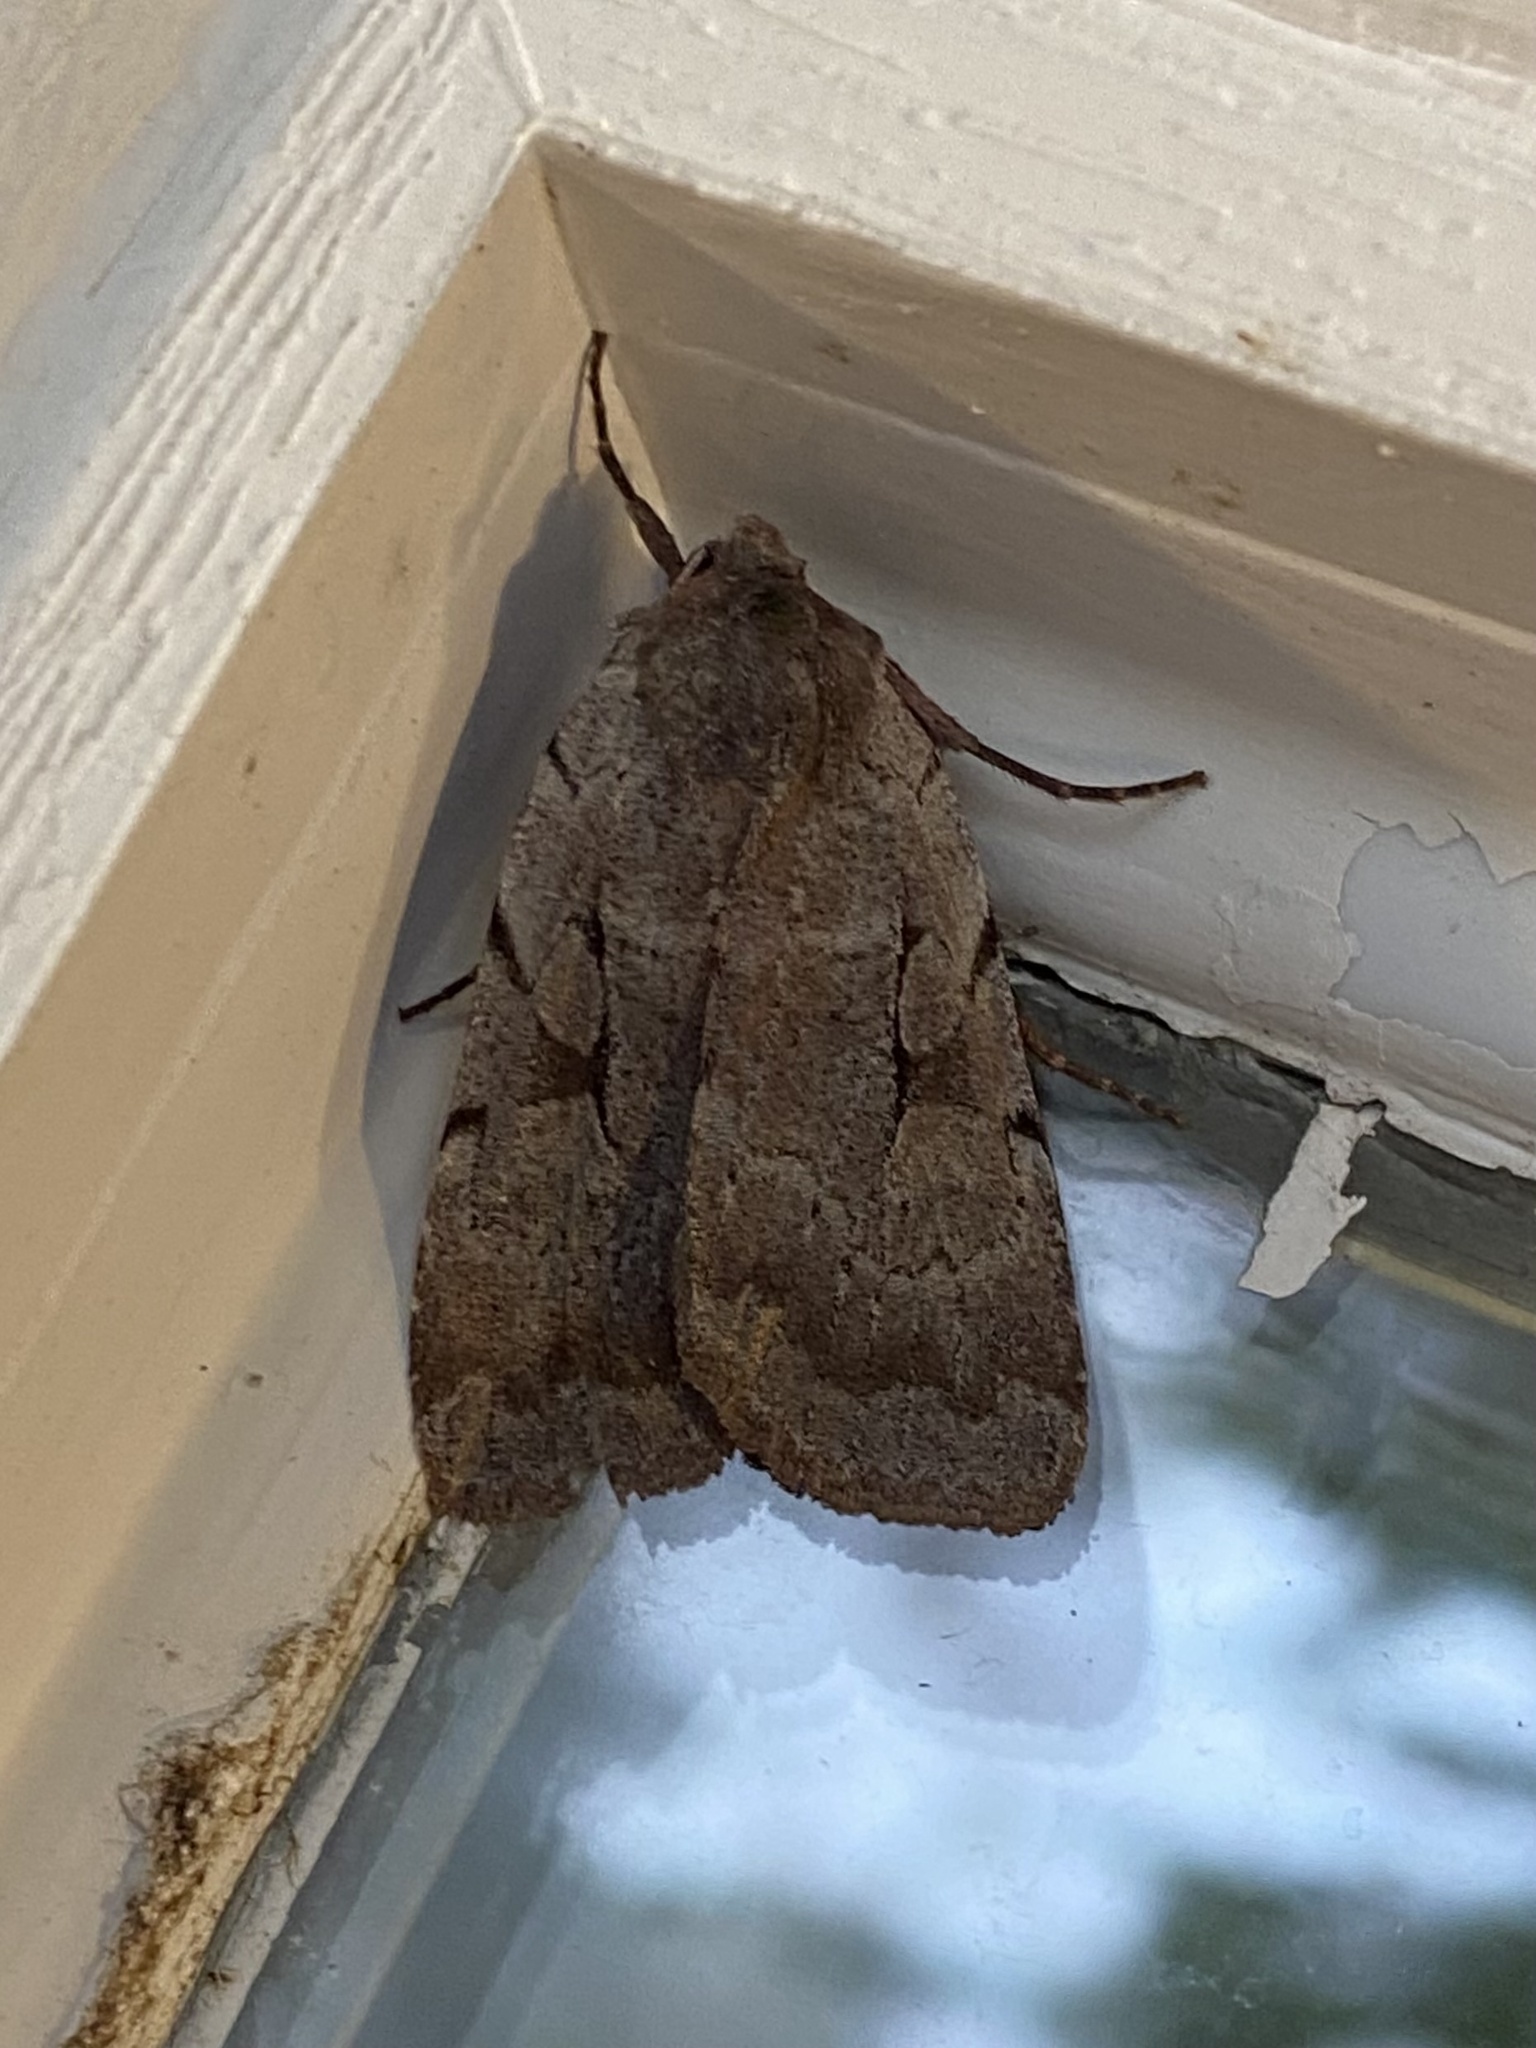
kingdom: Animalia
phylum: Arthropoda
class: Insecta
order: Lepidoptera
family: Noctuidae
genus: Xestia
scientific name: Xestia elimata
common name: Chameleon caterpillar
